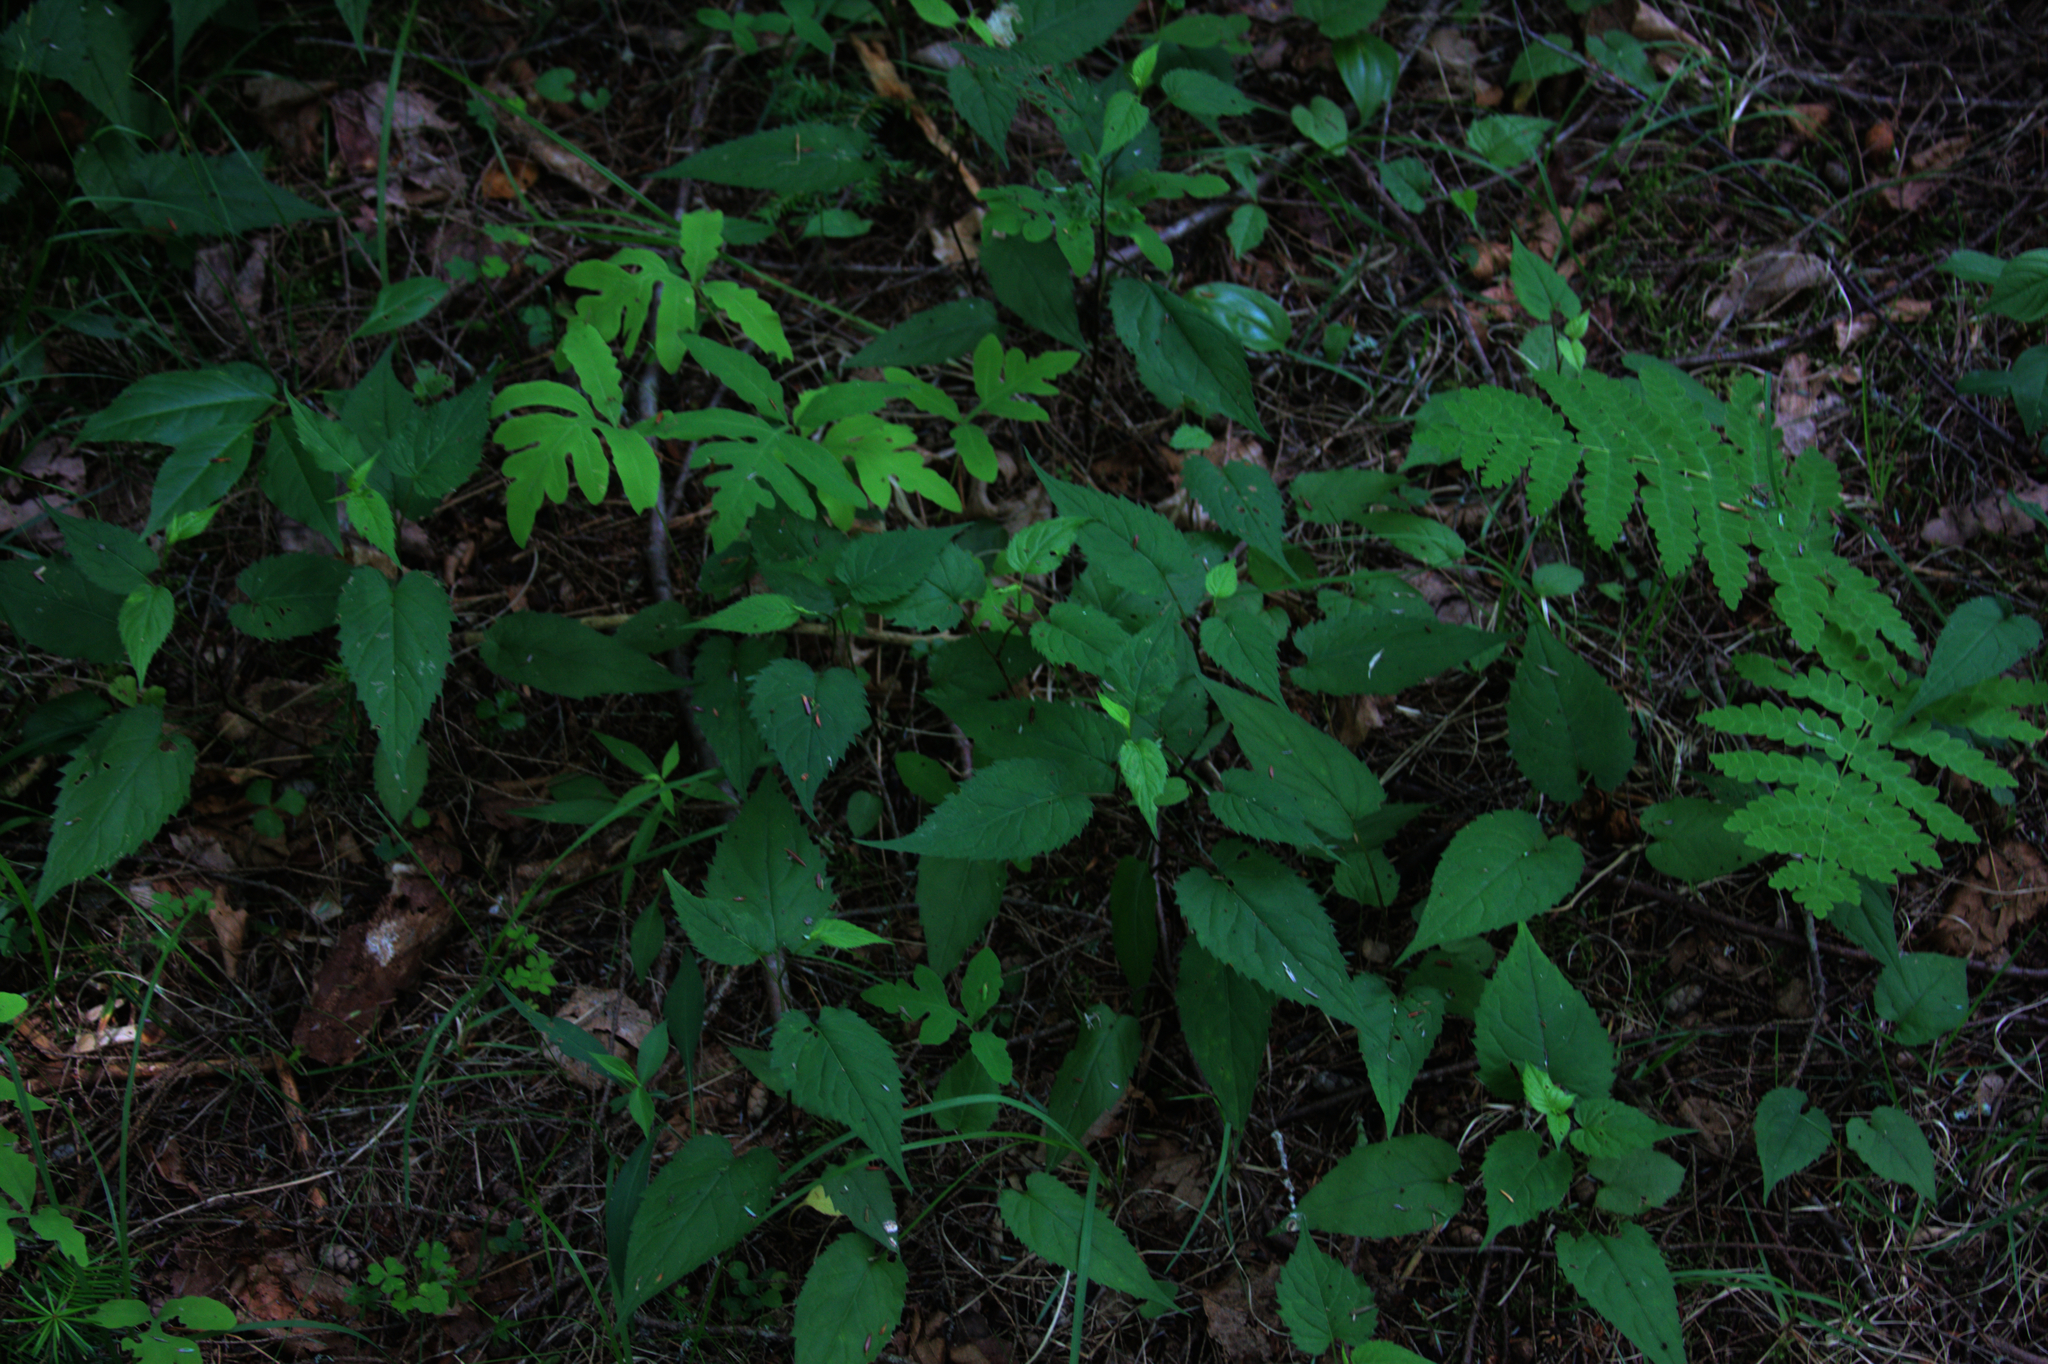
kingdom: Plantae
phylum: Tracheophyta
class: Polypodiopsida
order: Polypodiales
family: Onocleaceae
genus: Onoclea
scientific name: Onoclea sensibilis
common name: Sensitive fern
